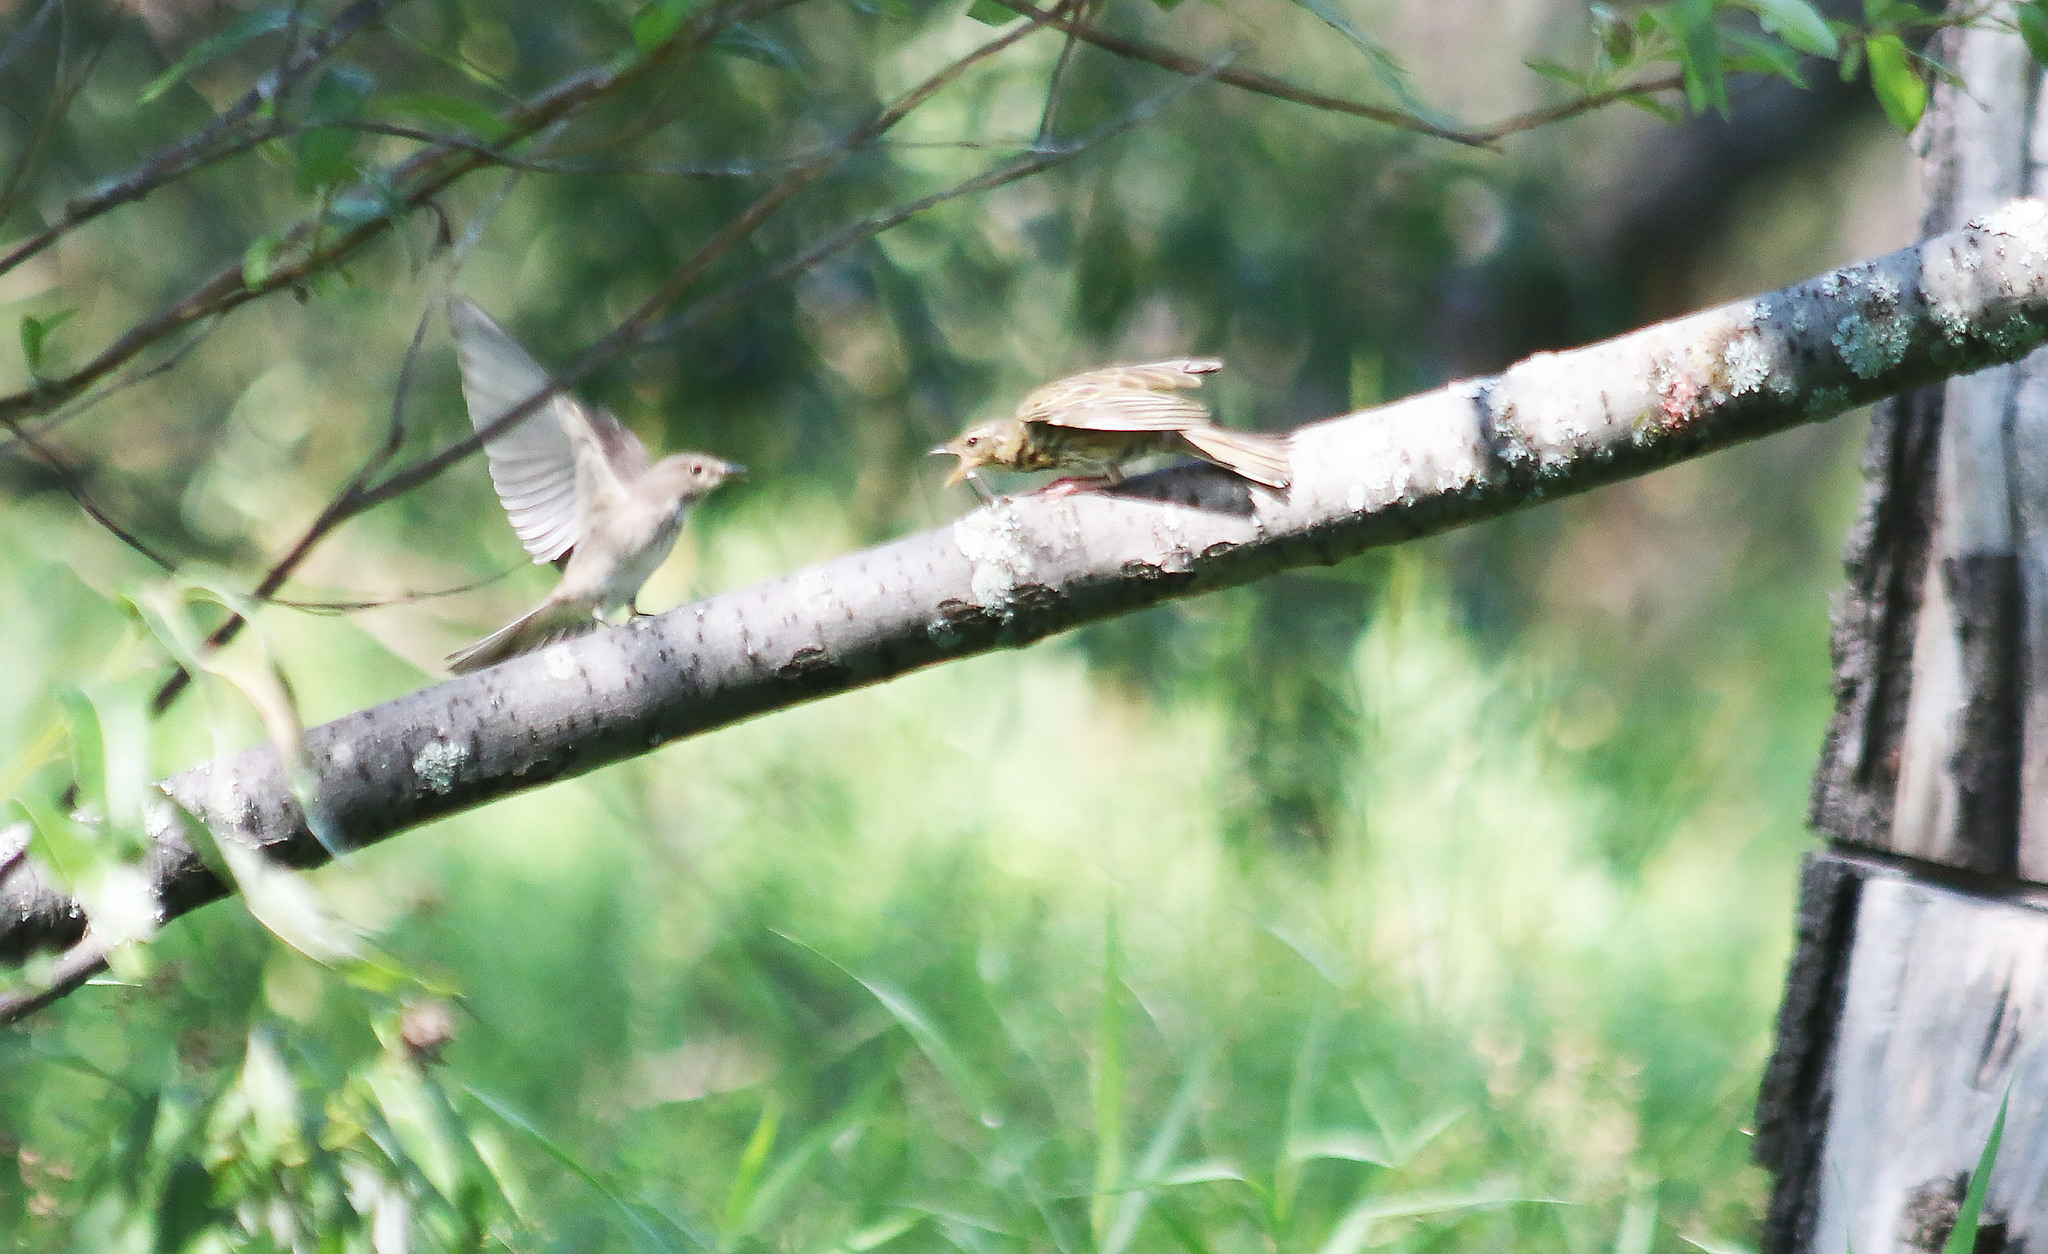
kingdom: Animalia
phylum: Chordata
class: Aves
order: Passeriformes
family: Muscicapidae
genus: Muscicapa
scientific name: Muscicapa striata
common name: Spotted flycatcher
